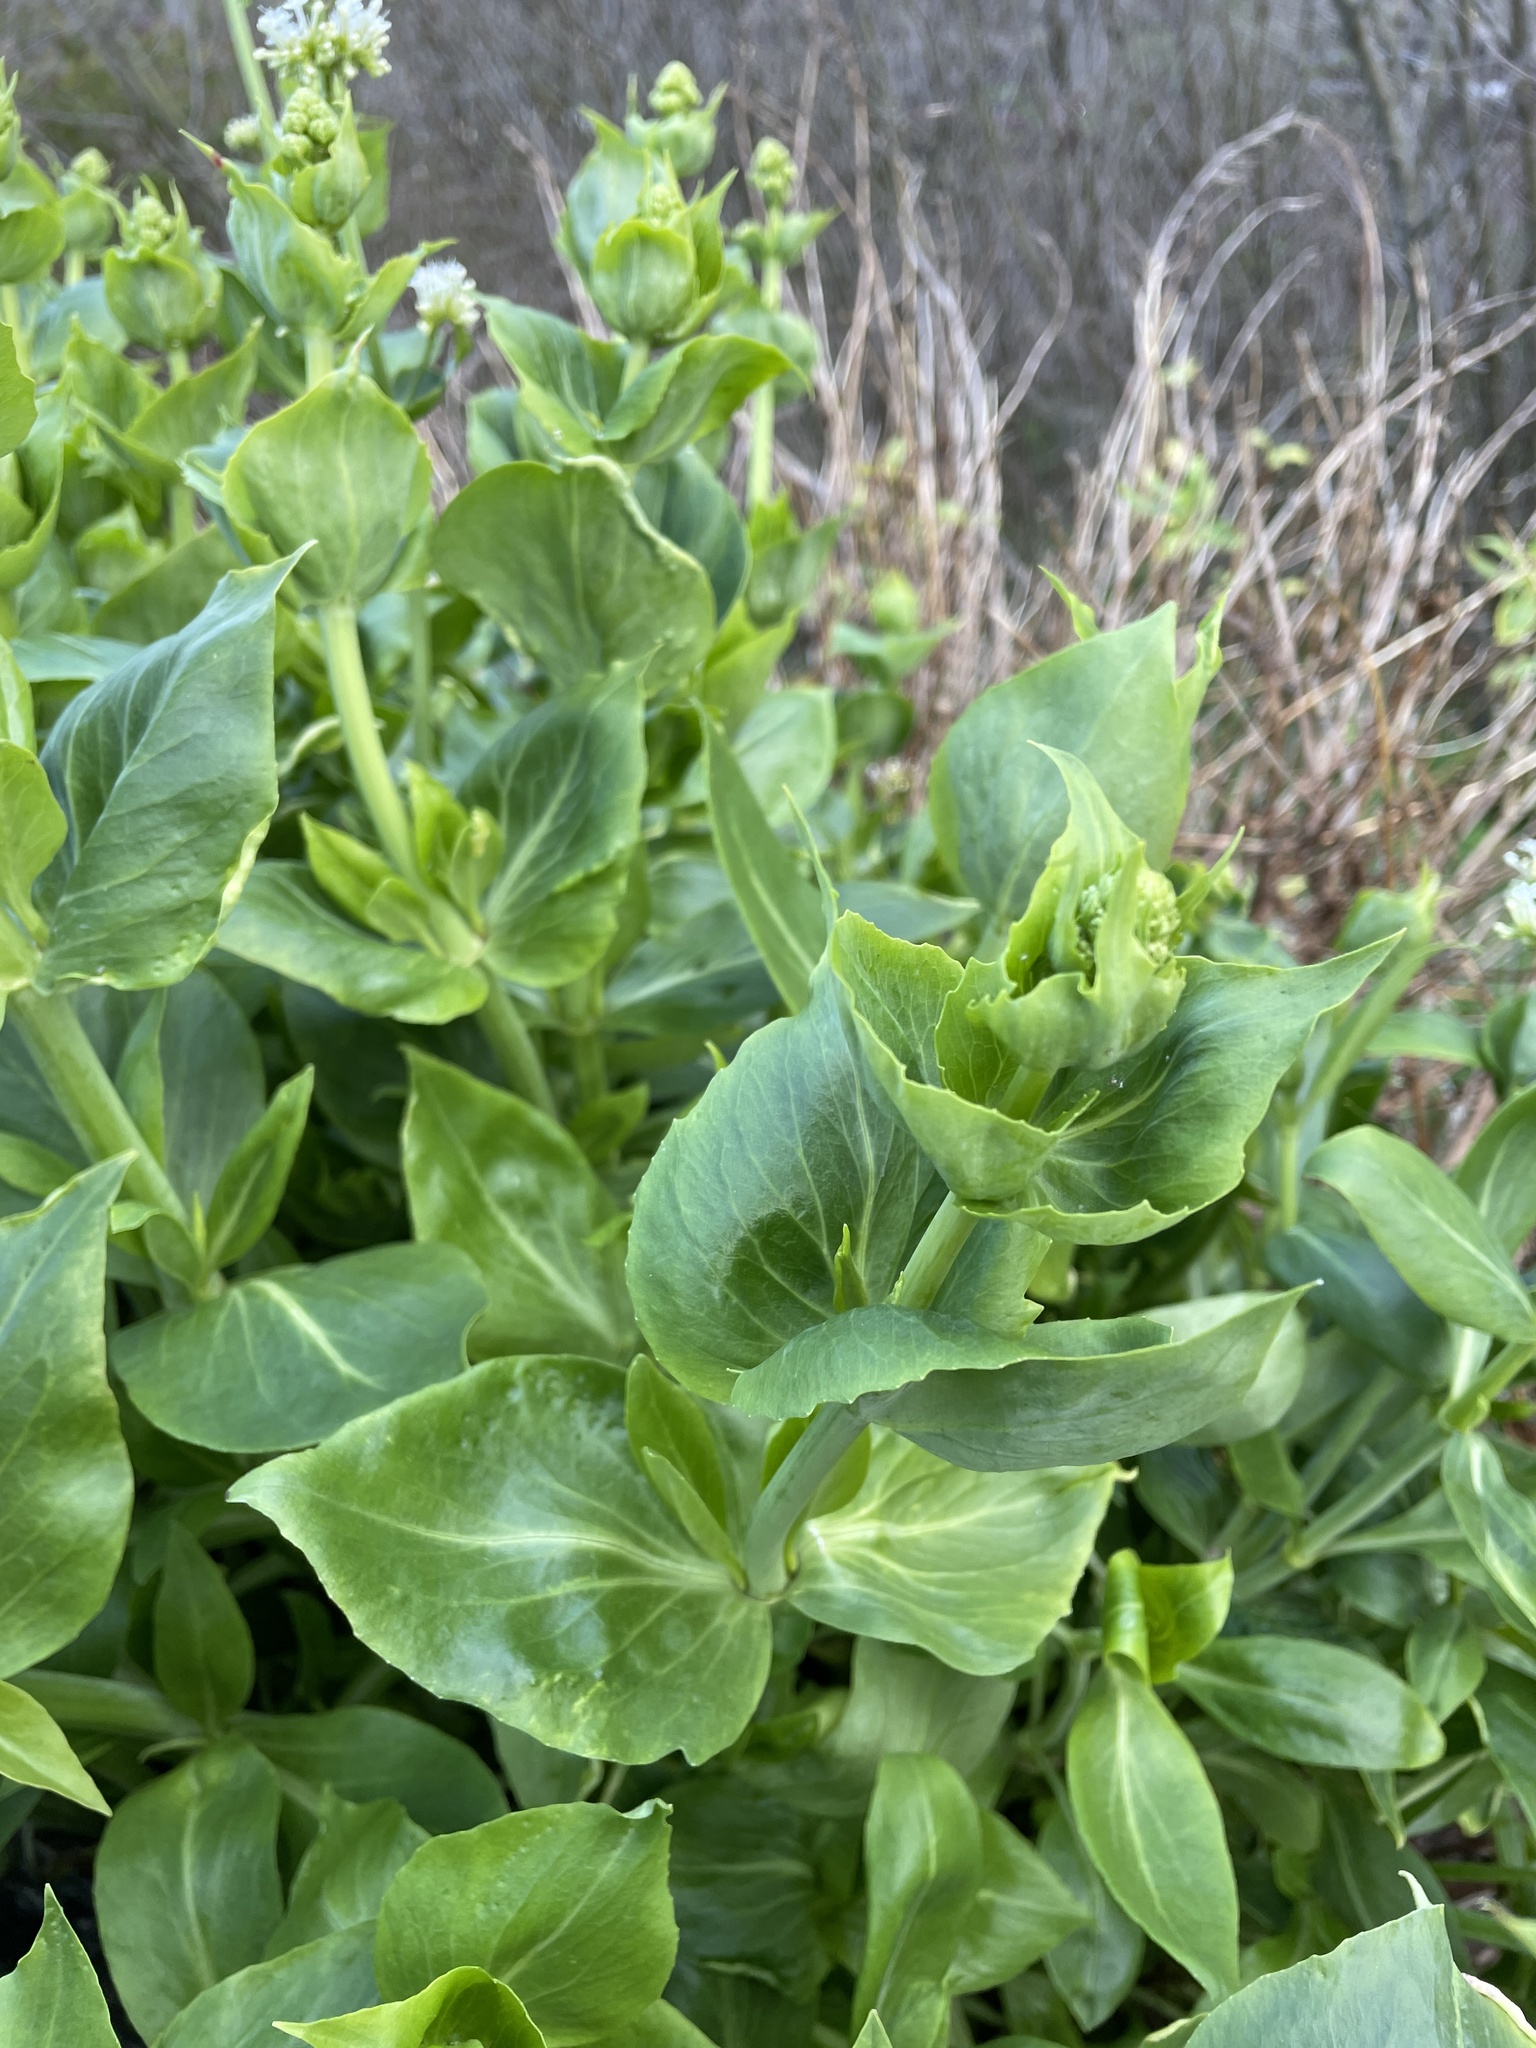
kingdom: Plantae
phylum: Tracheophyta
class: Magnoliopsida
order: Dipsacales
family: Caprifoliaceae
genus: Centranthus
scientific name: Centranthus ruber
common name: Red valerian
